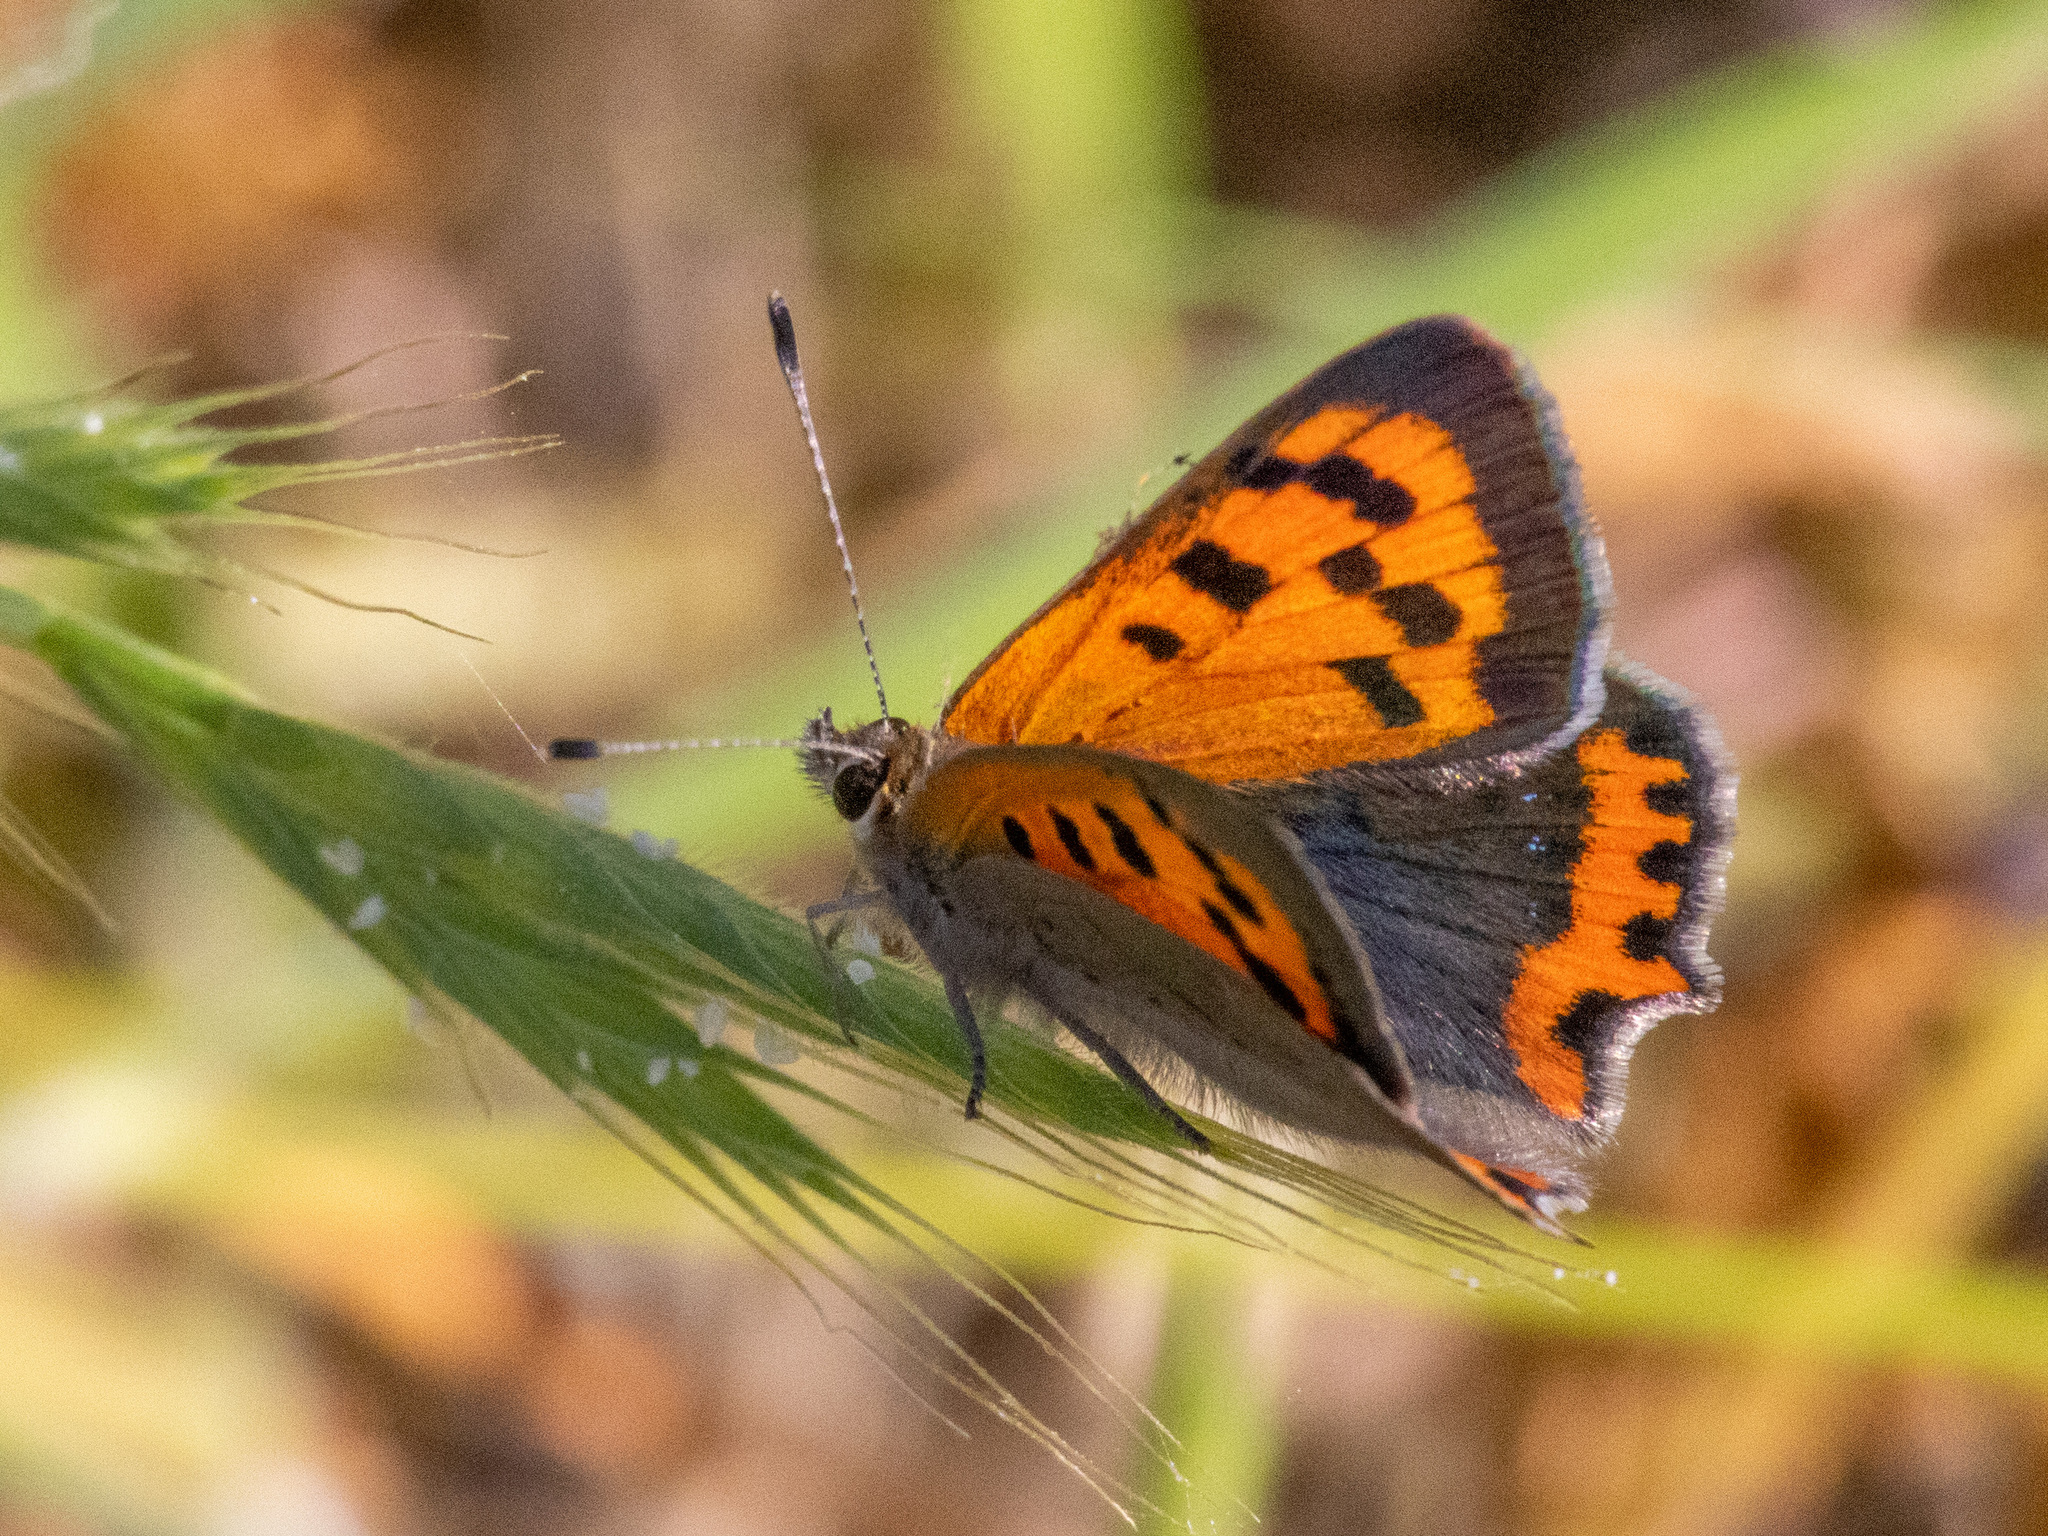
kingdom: Animalia
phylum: Arthropoda
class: Insecta
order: Lepidoptera
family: Lycaenidae
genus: Lycaena
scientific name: Lycaena phlaeas
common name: Small copper
